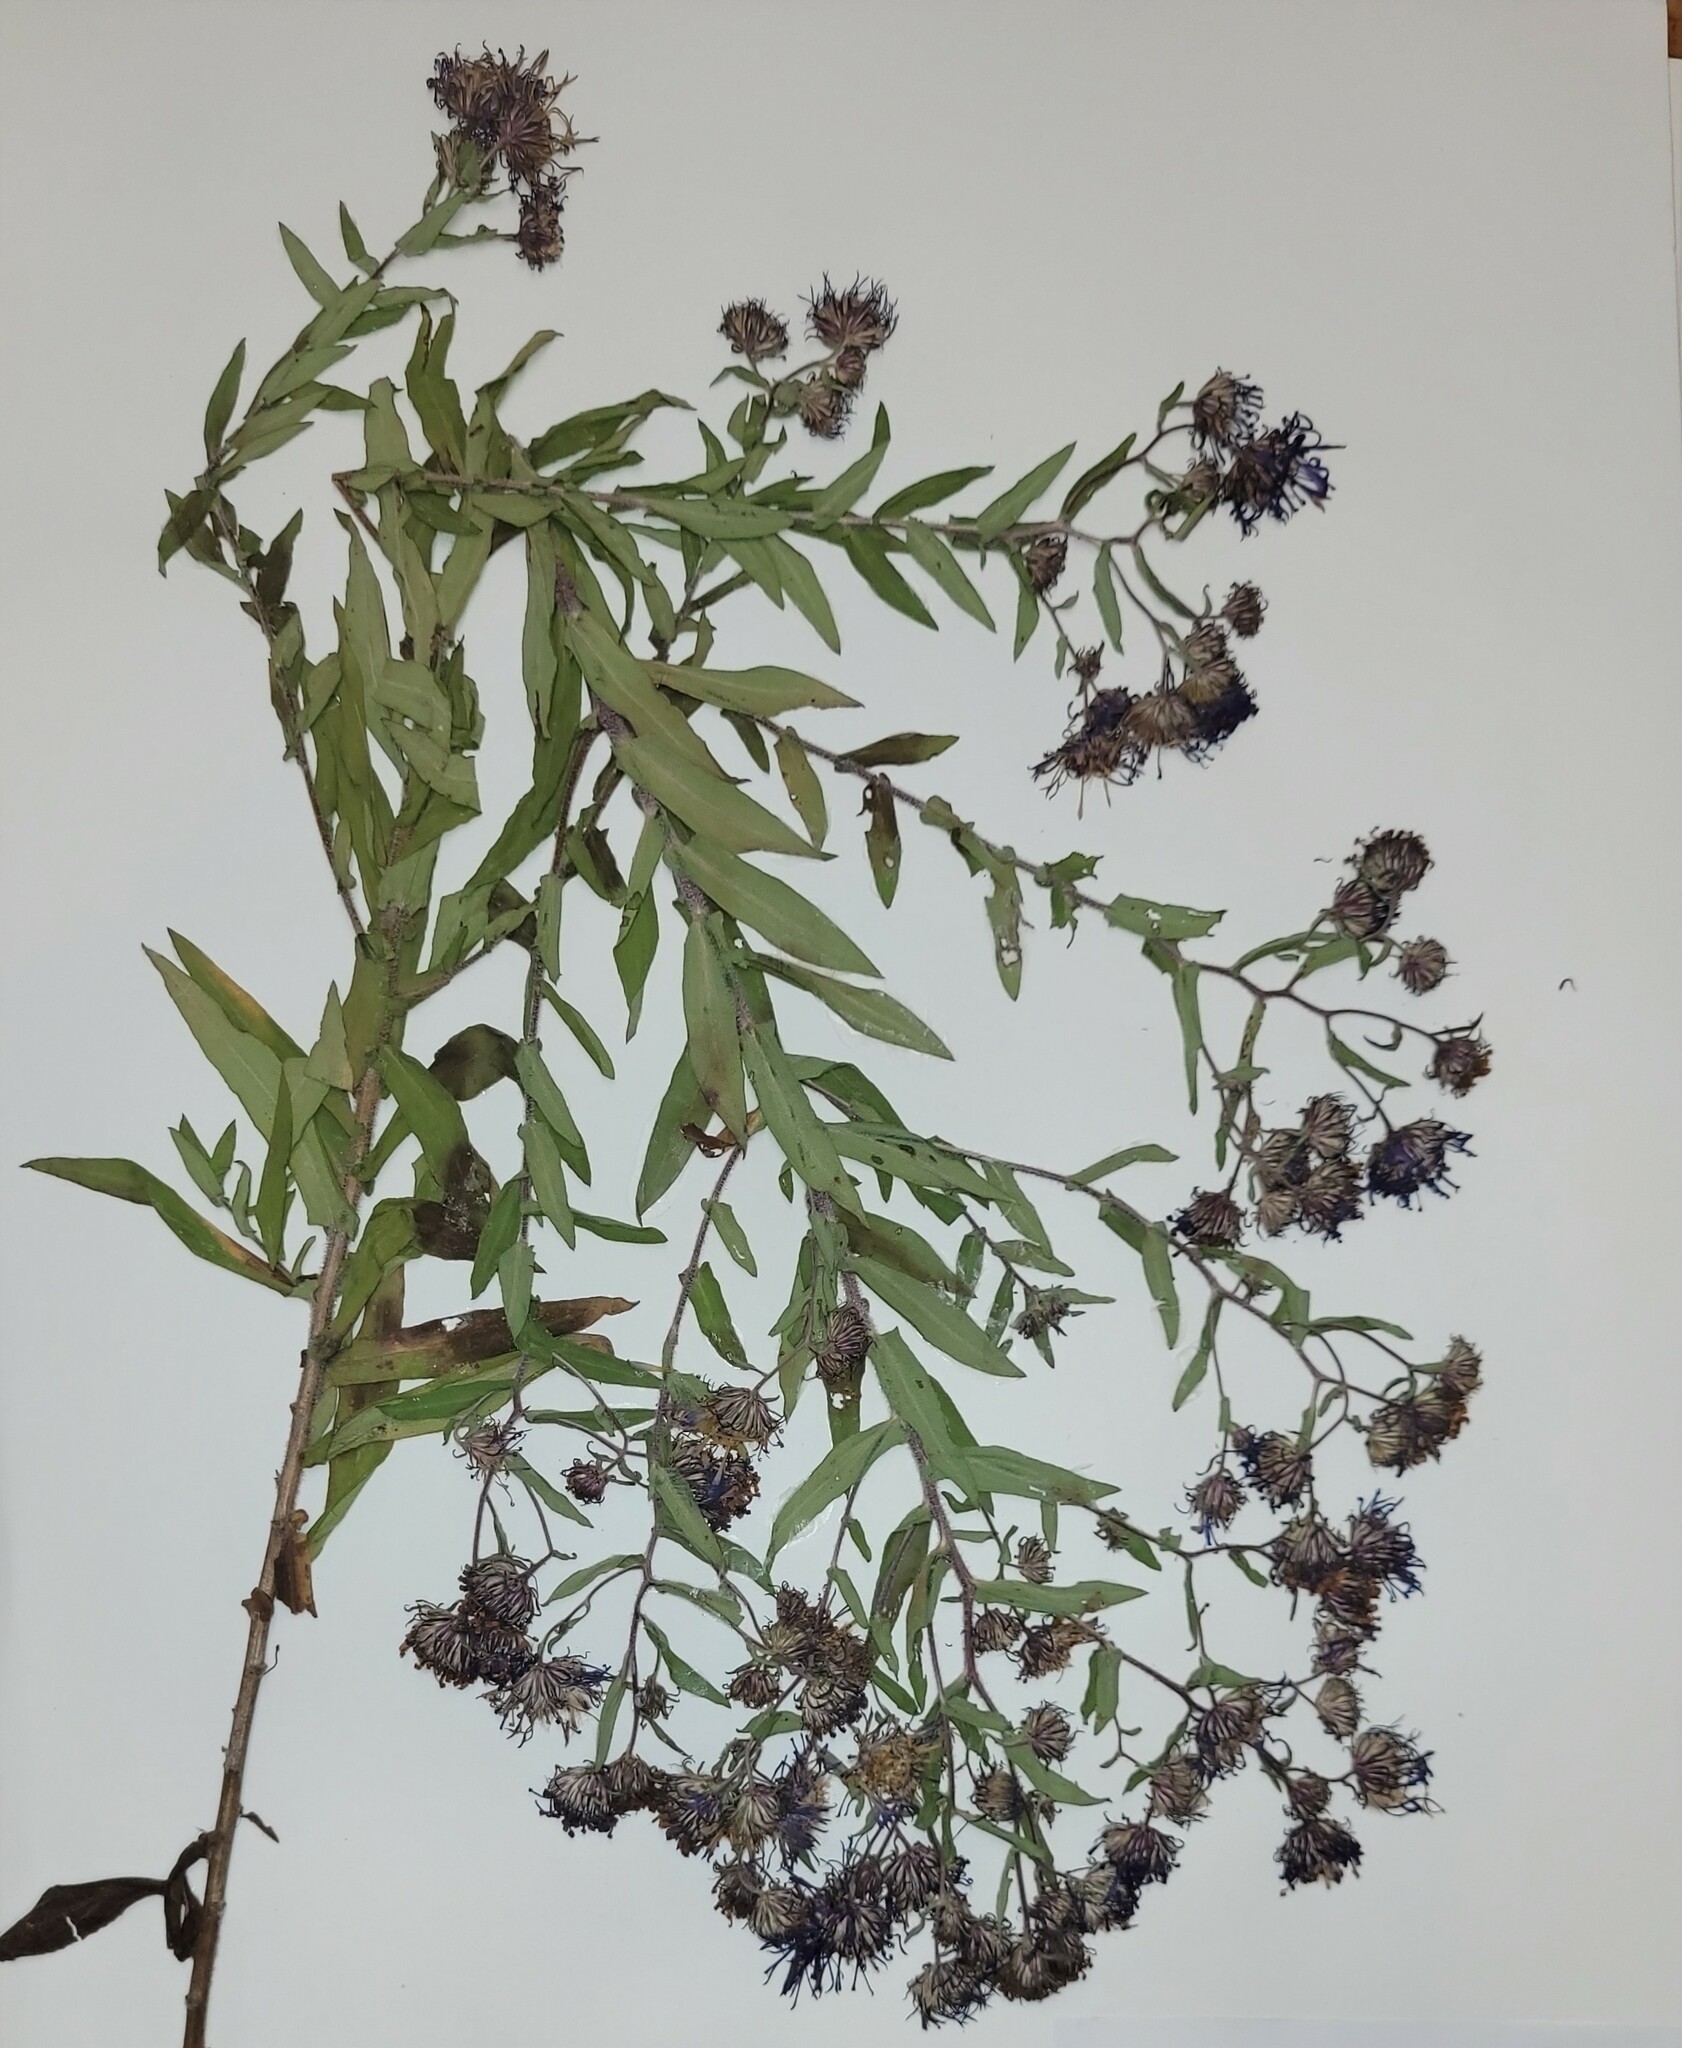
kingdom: Plantae
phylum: Tracheophyta
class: Magnoliopsida
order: Asterales
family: Asteraceae
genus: Symphyotrichum
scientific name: Symphyotrichum novae-angliae
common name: Michaelmas daisy
